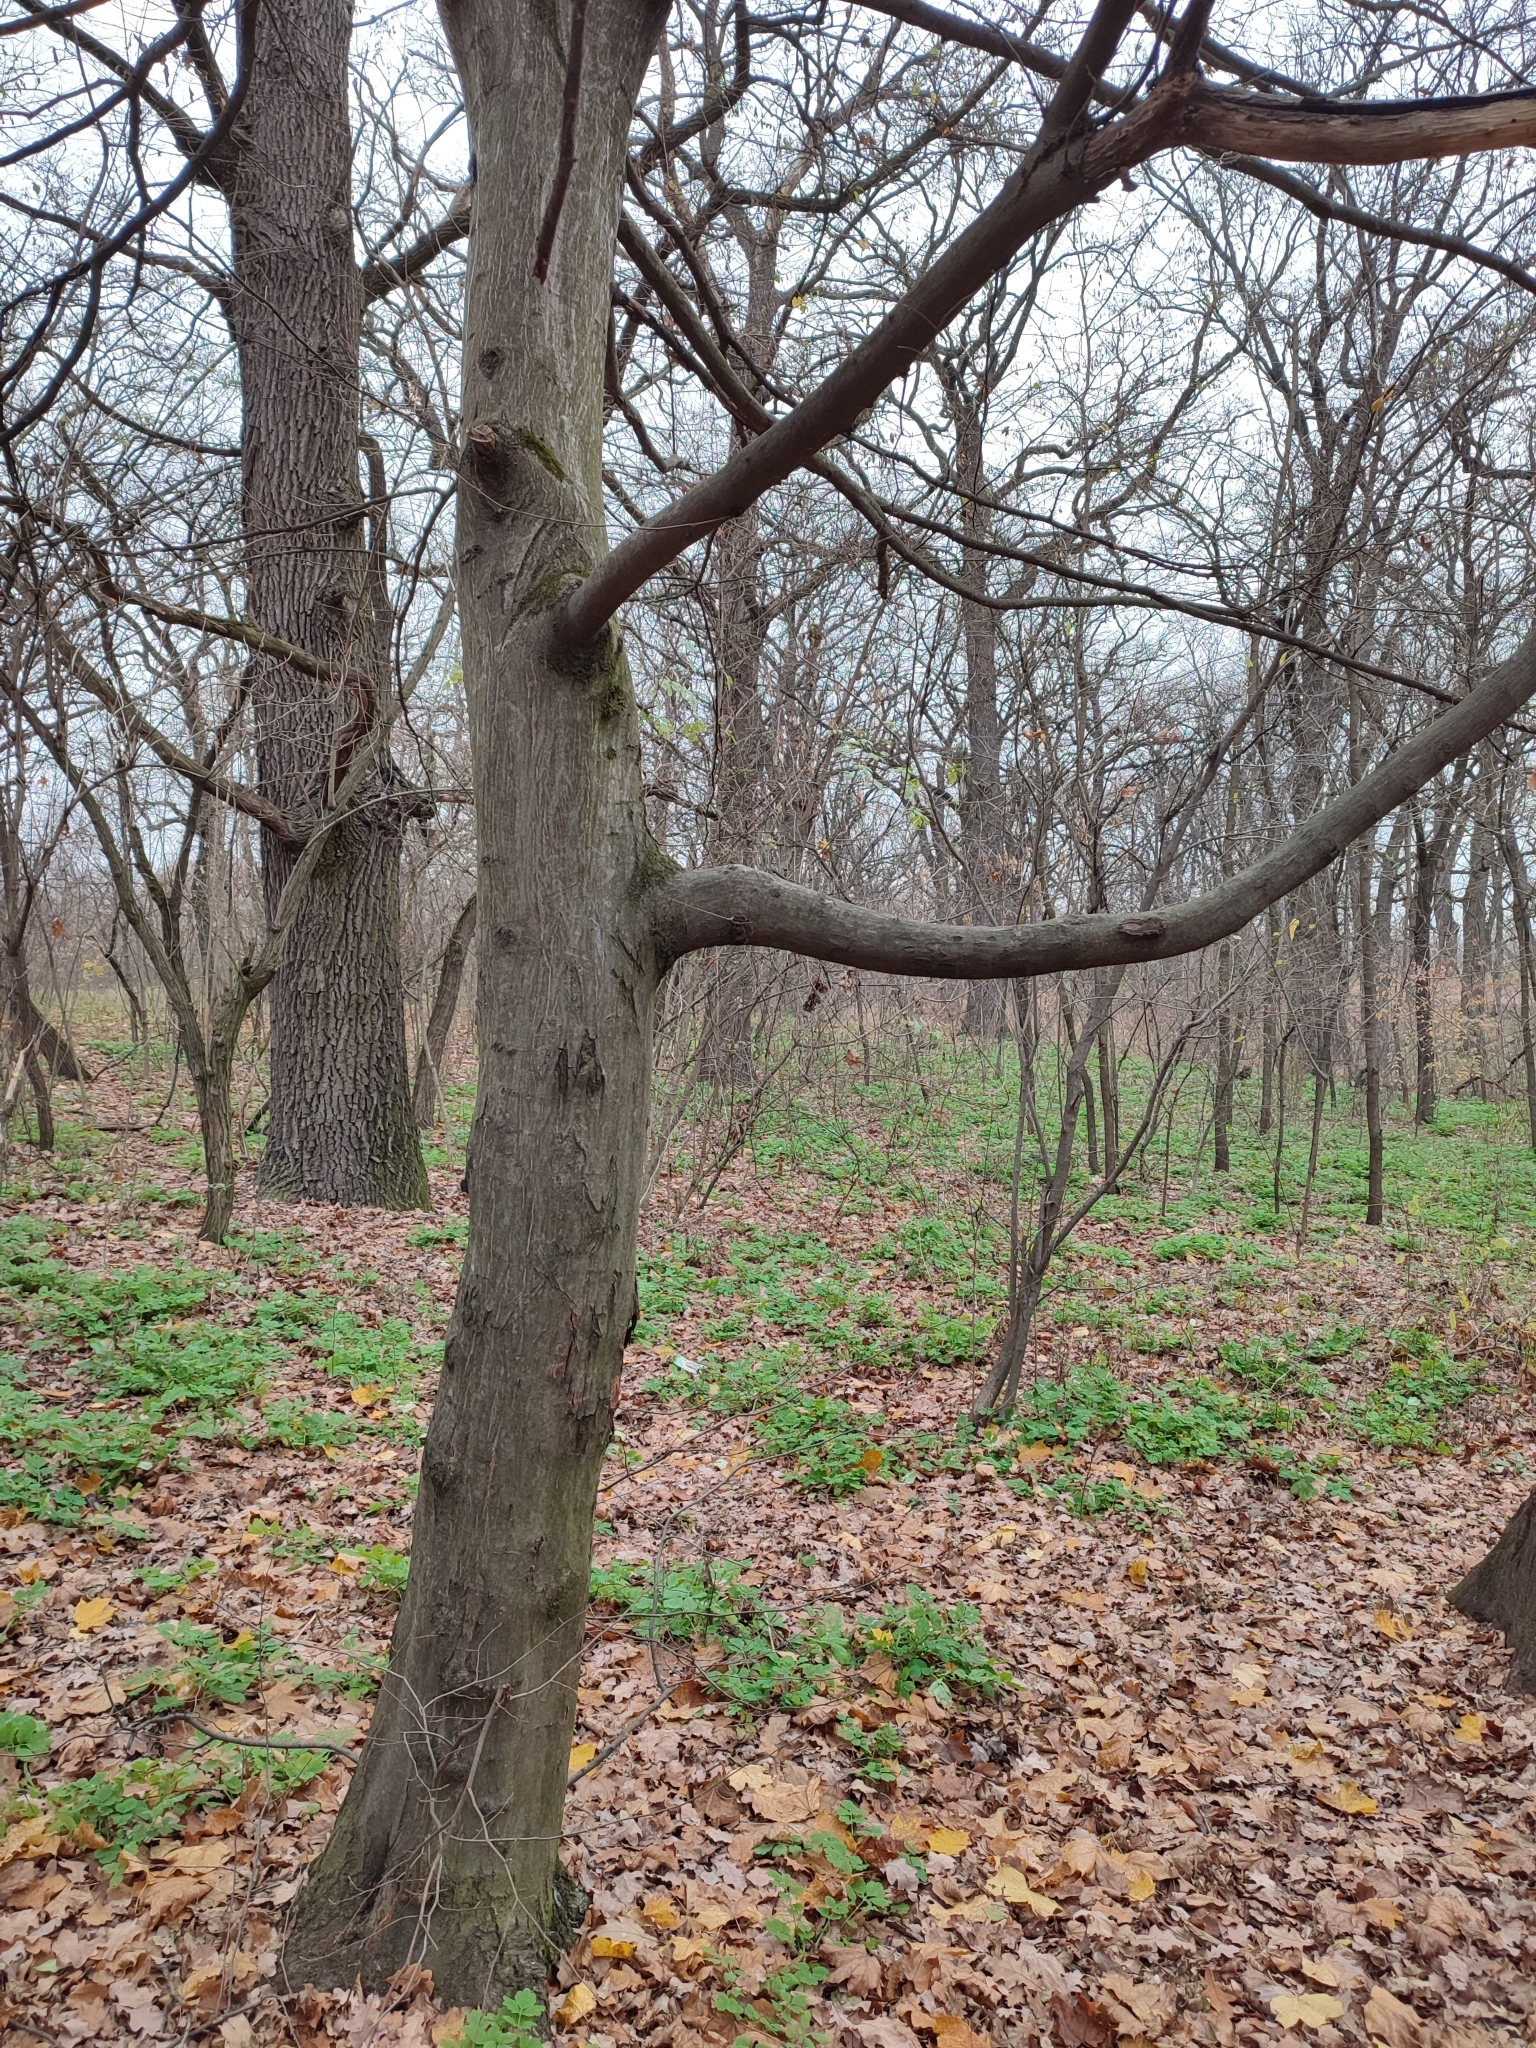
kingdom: Plantae
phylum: Tracheophyta
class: Magnoliopsida
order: Fagales
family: Betulaceae
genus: Carpinus
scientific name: Carpinus betulus
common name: Hornbeam
